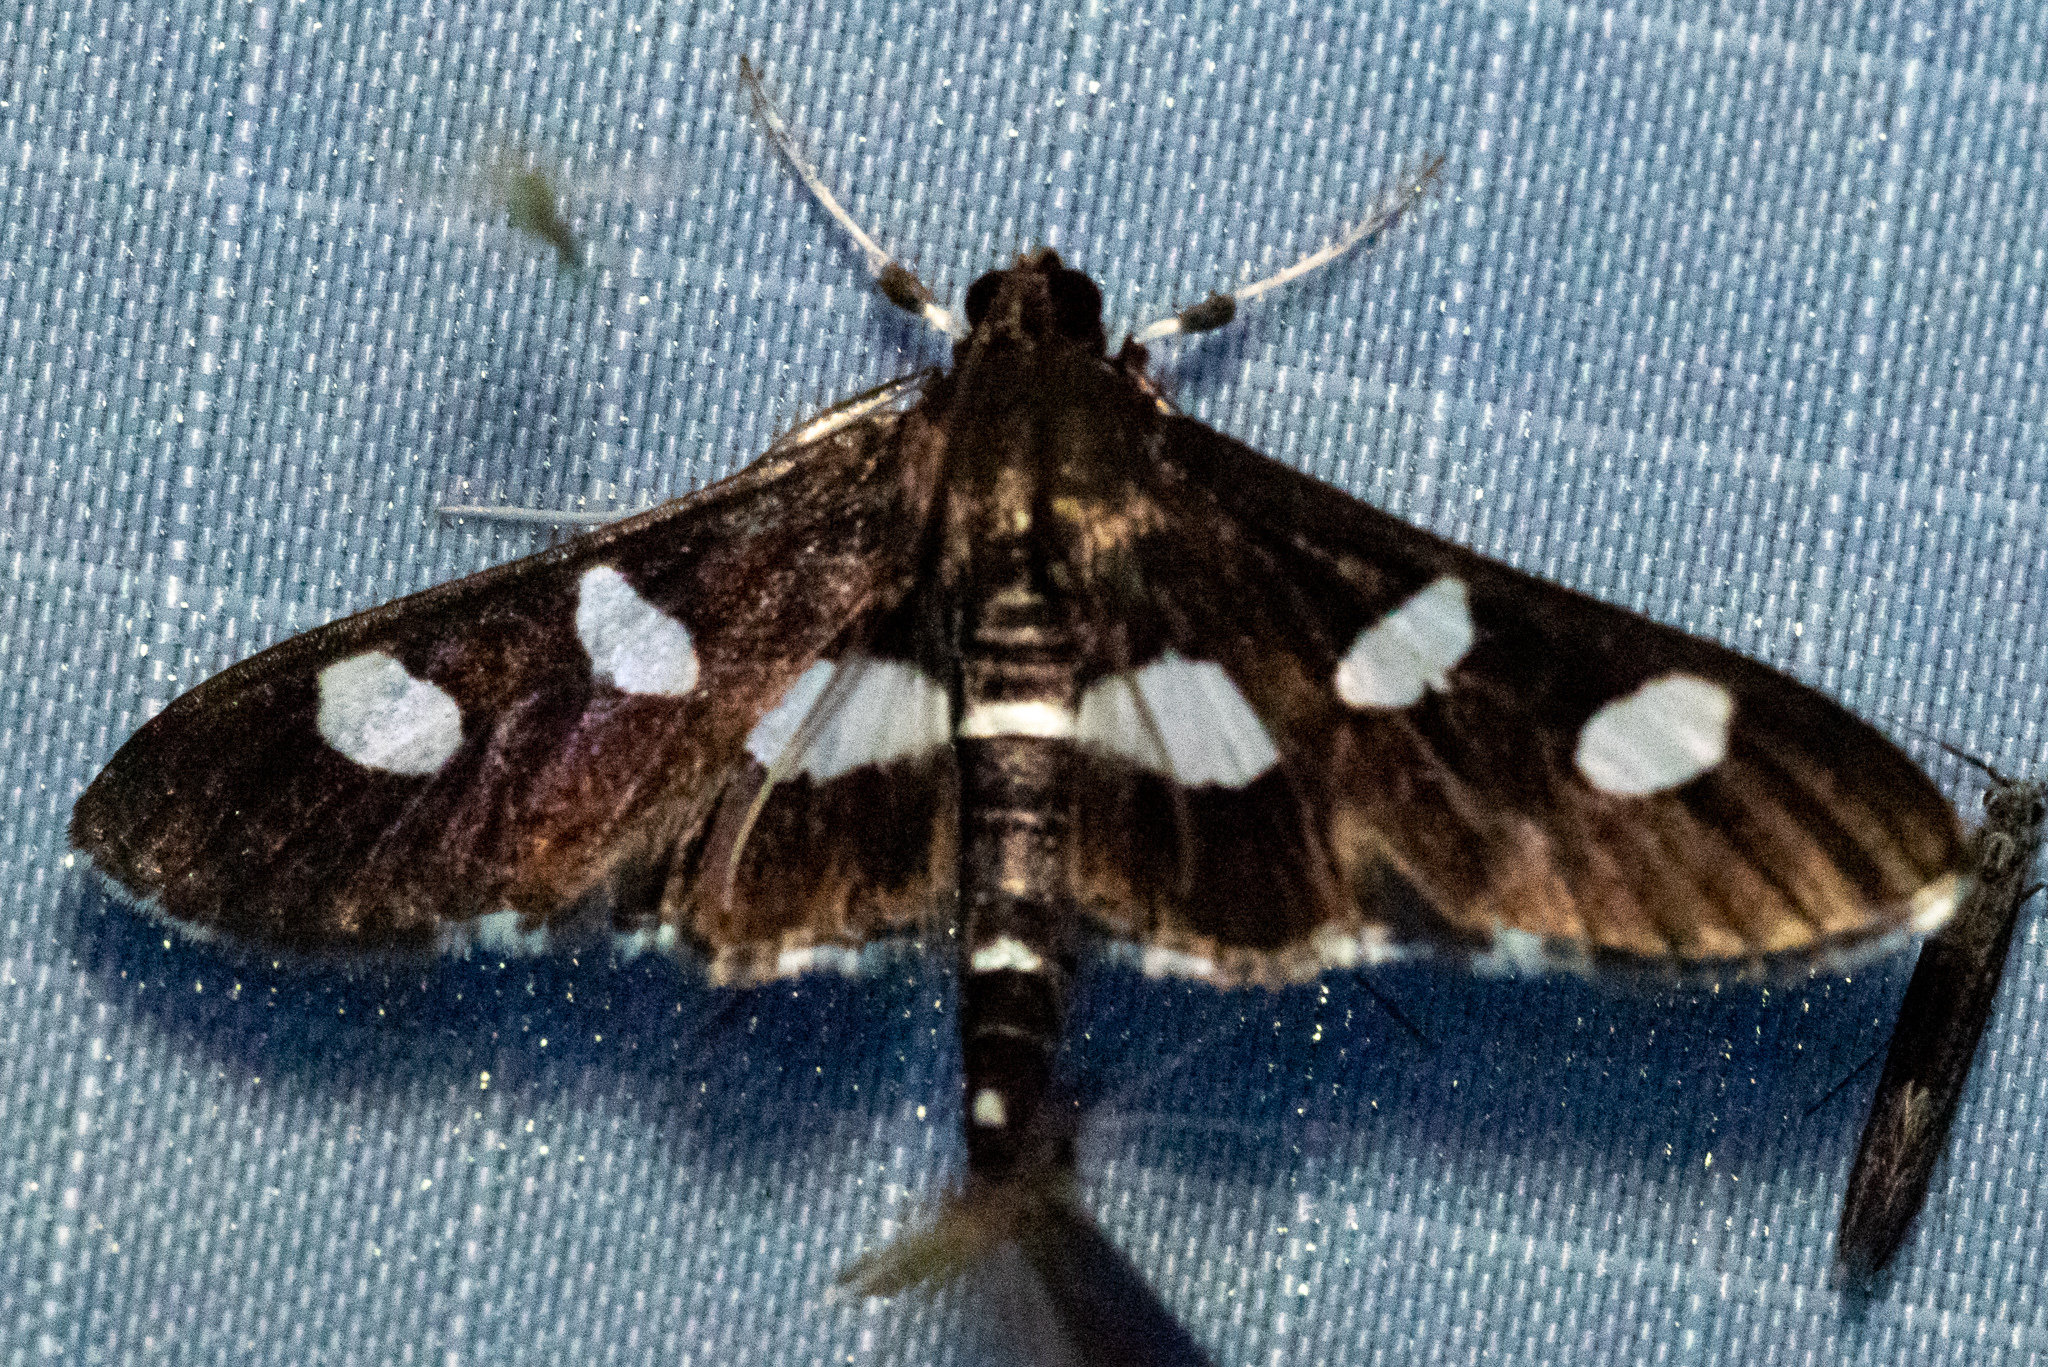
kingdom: Animalia
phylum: Arthropoda
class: Insecta
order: Lepidoptera
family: Crambidae
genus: Desmia
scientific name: Desmia
